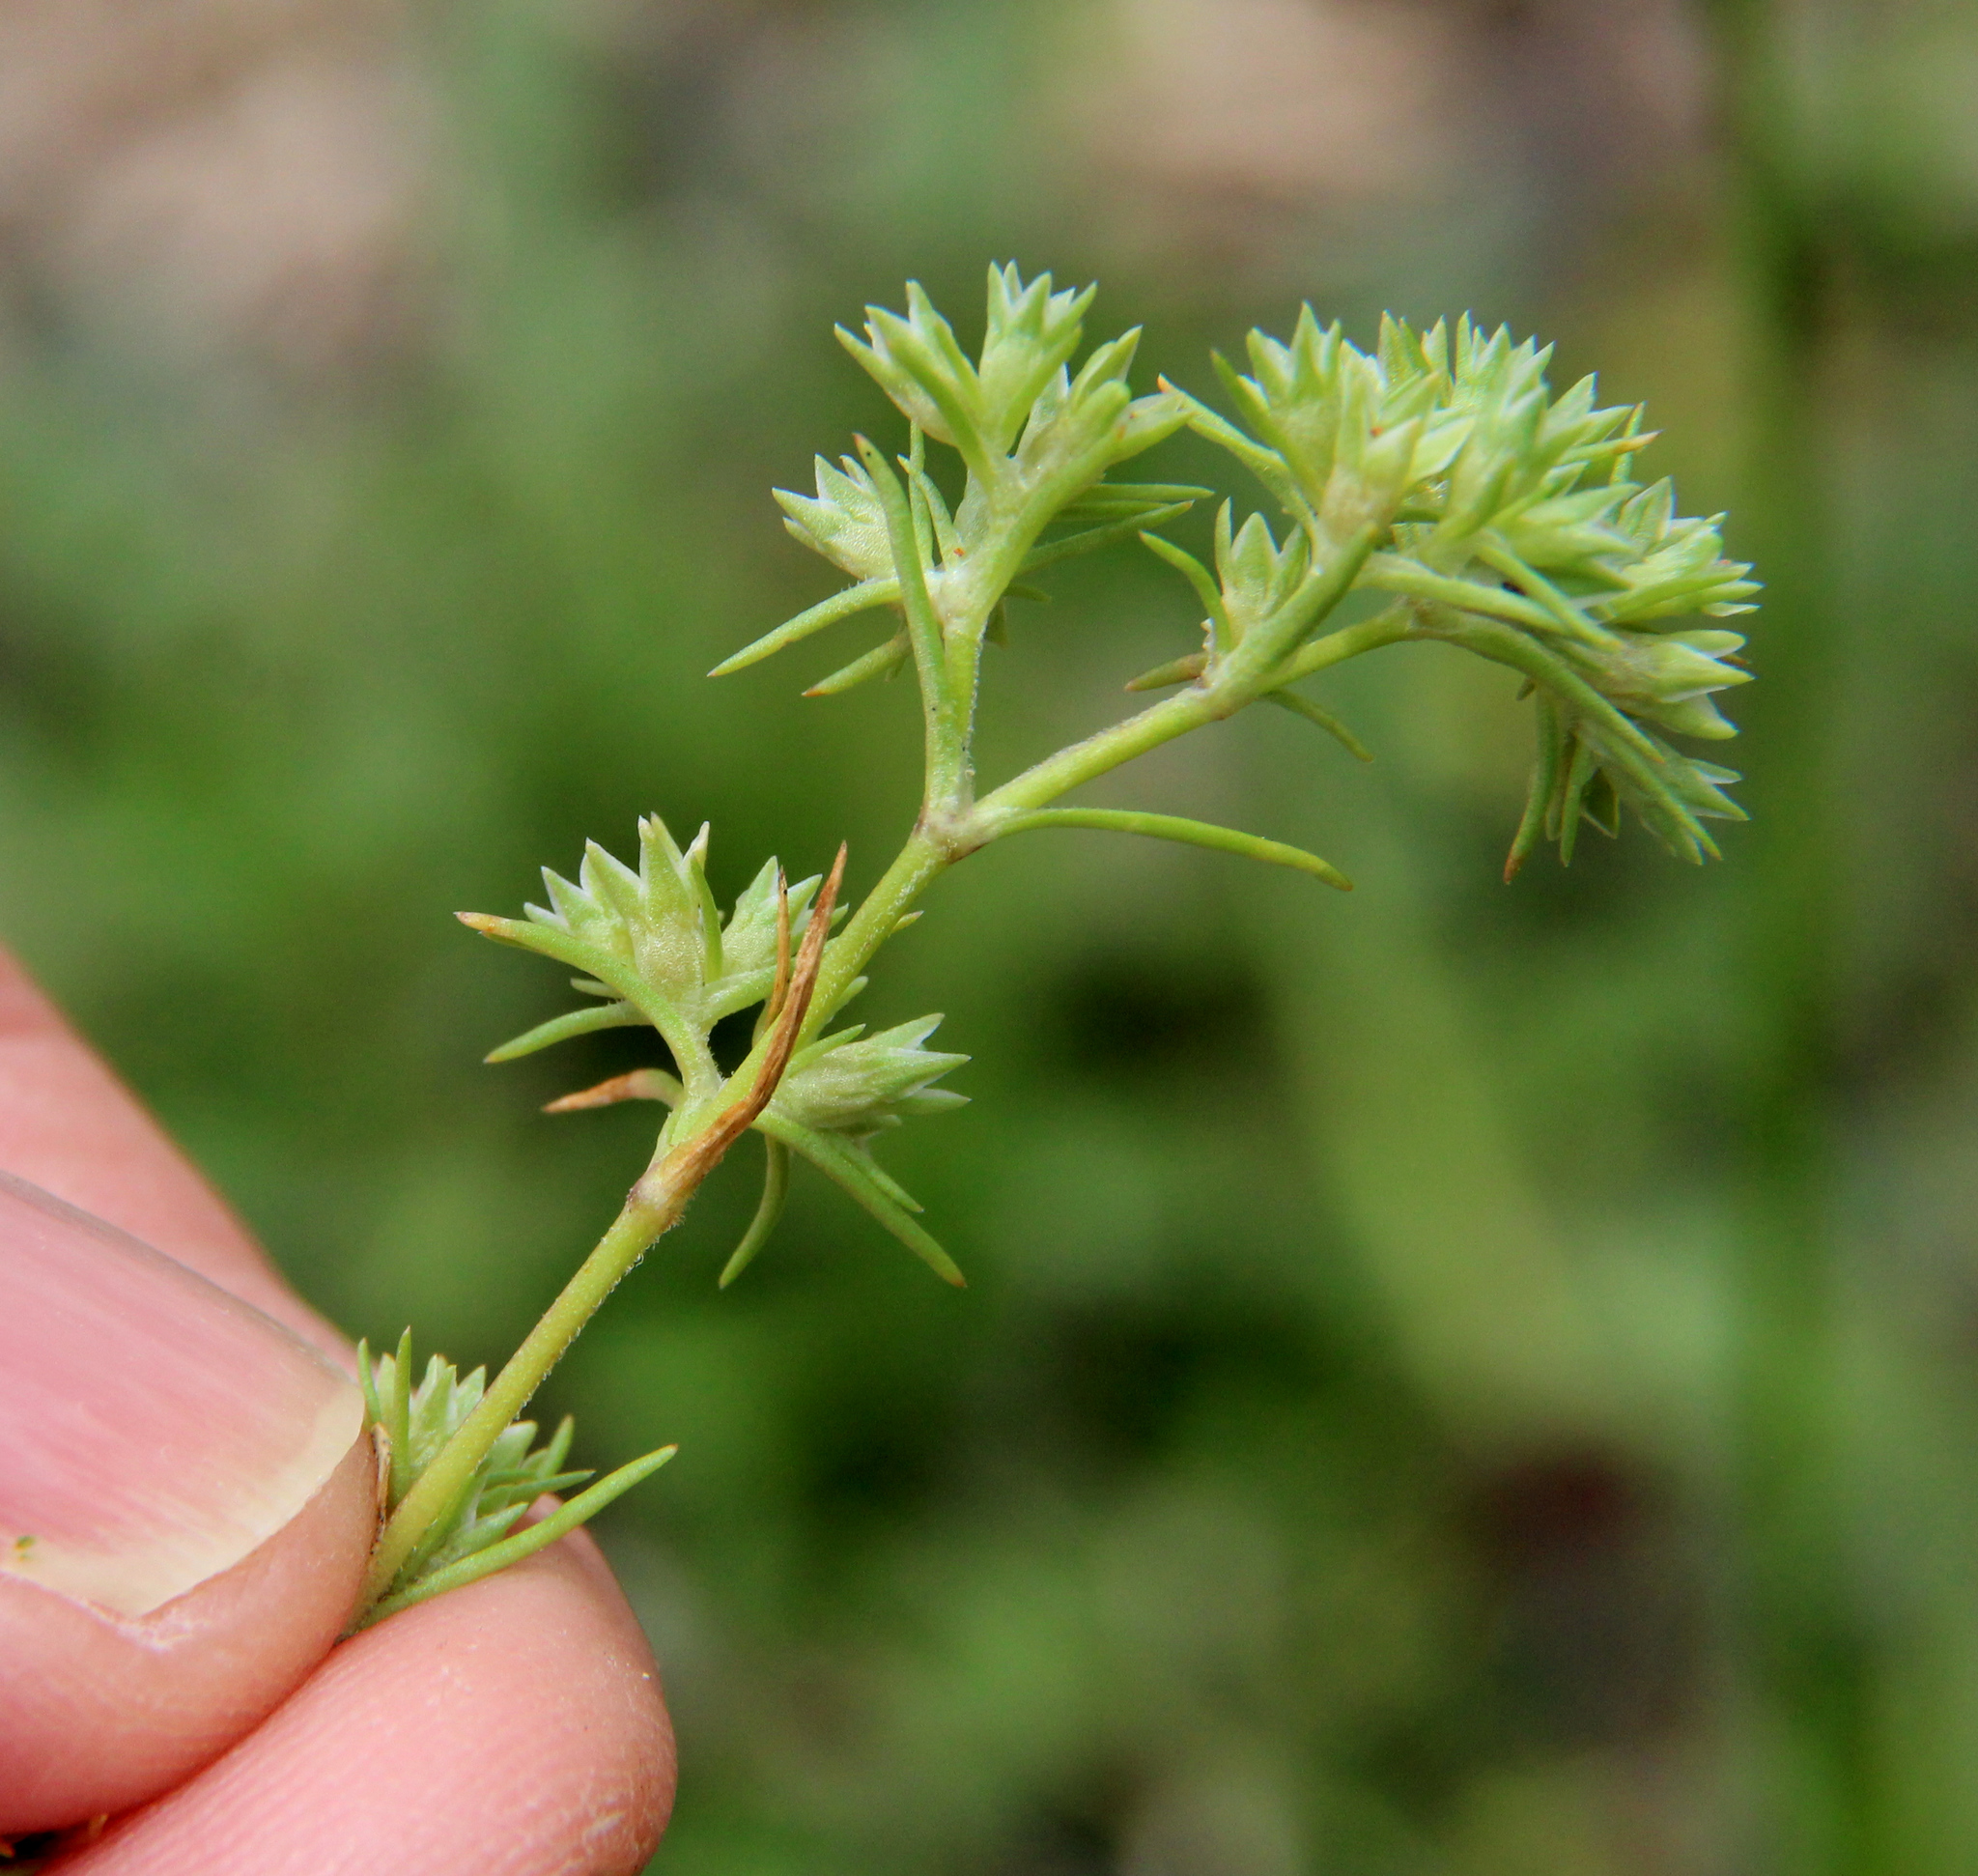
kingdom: Plantae
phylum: Tracheophyta
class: Magnoliopsida
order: Caryophyllales
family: Caryophyllaceae
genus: Scleranthus
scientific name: Scleranthus annuus
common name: Annual knawel
